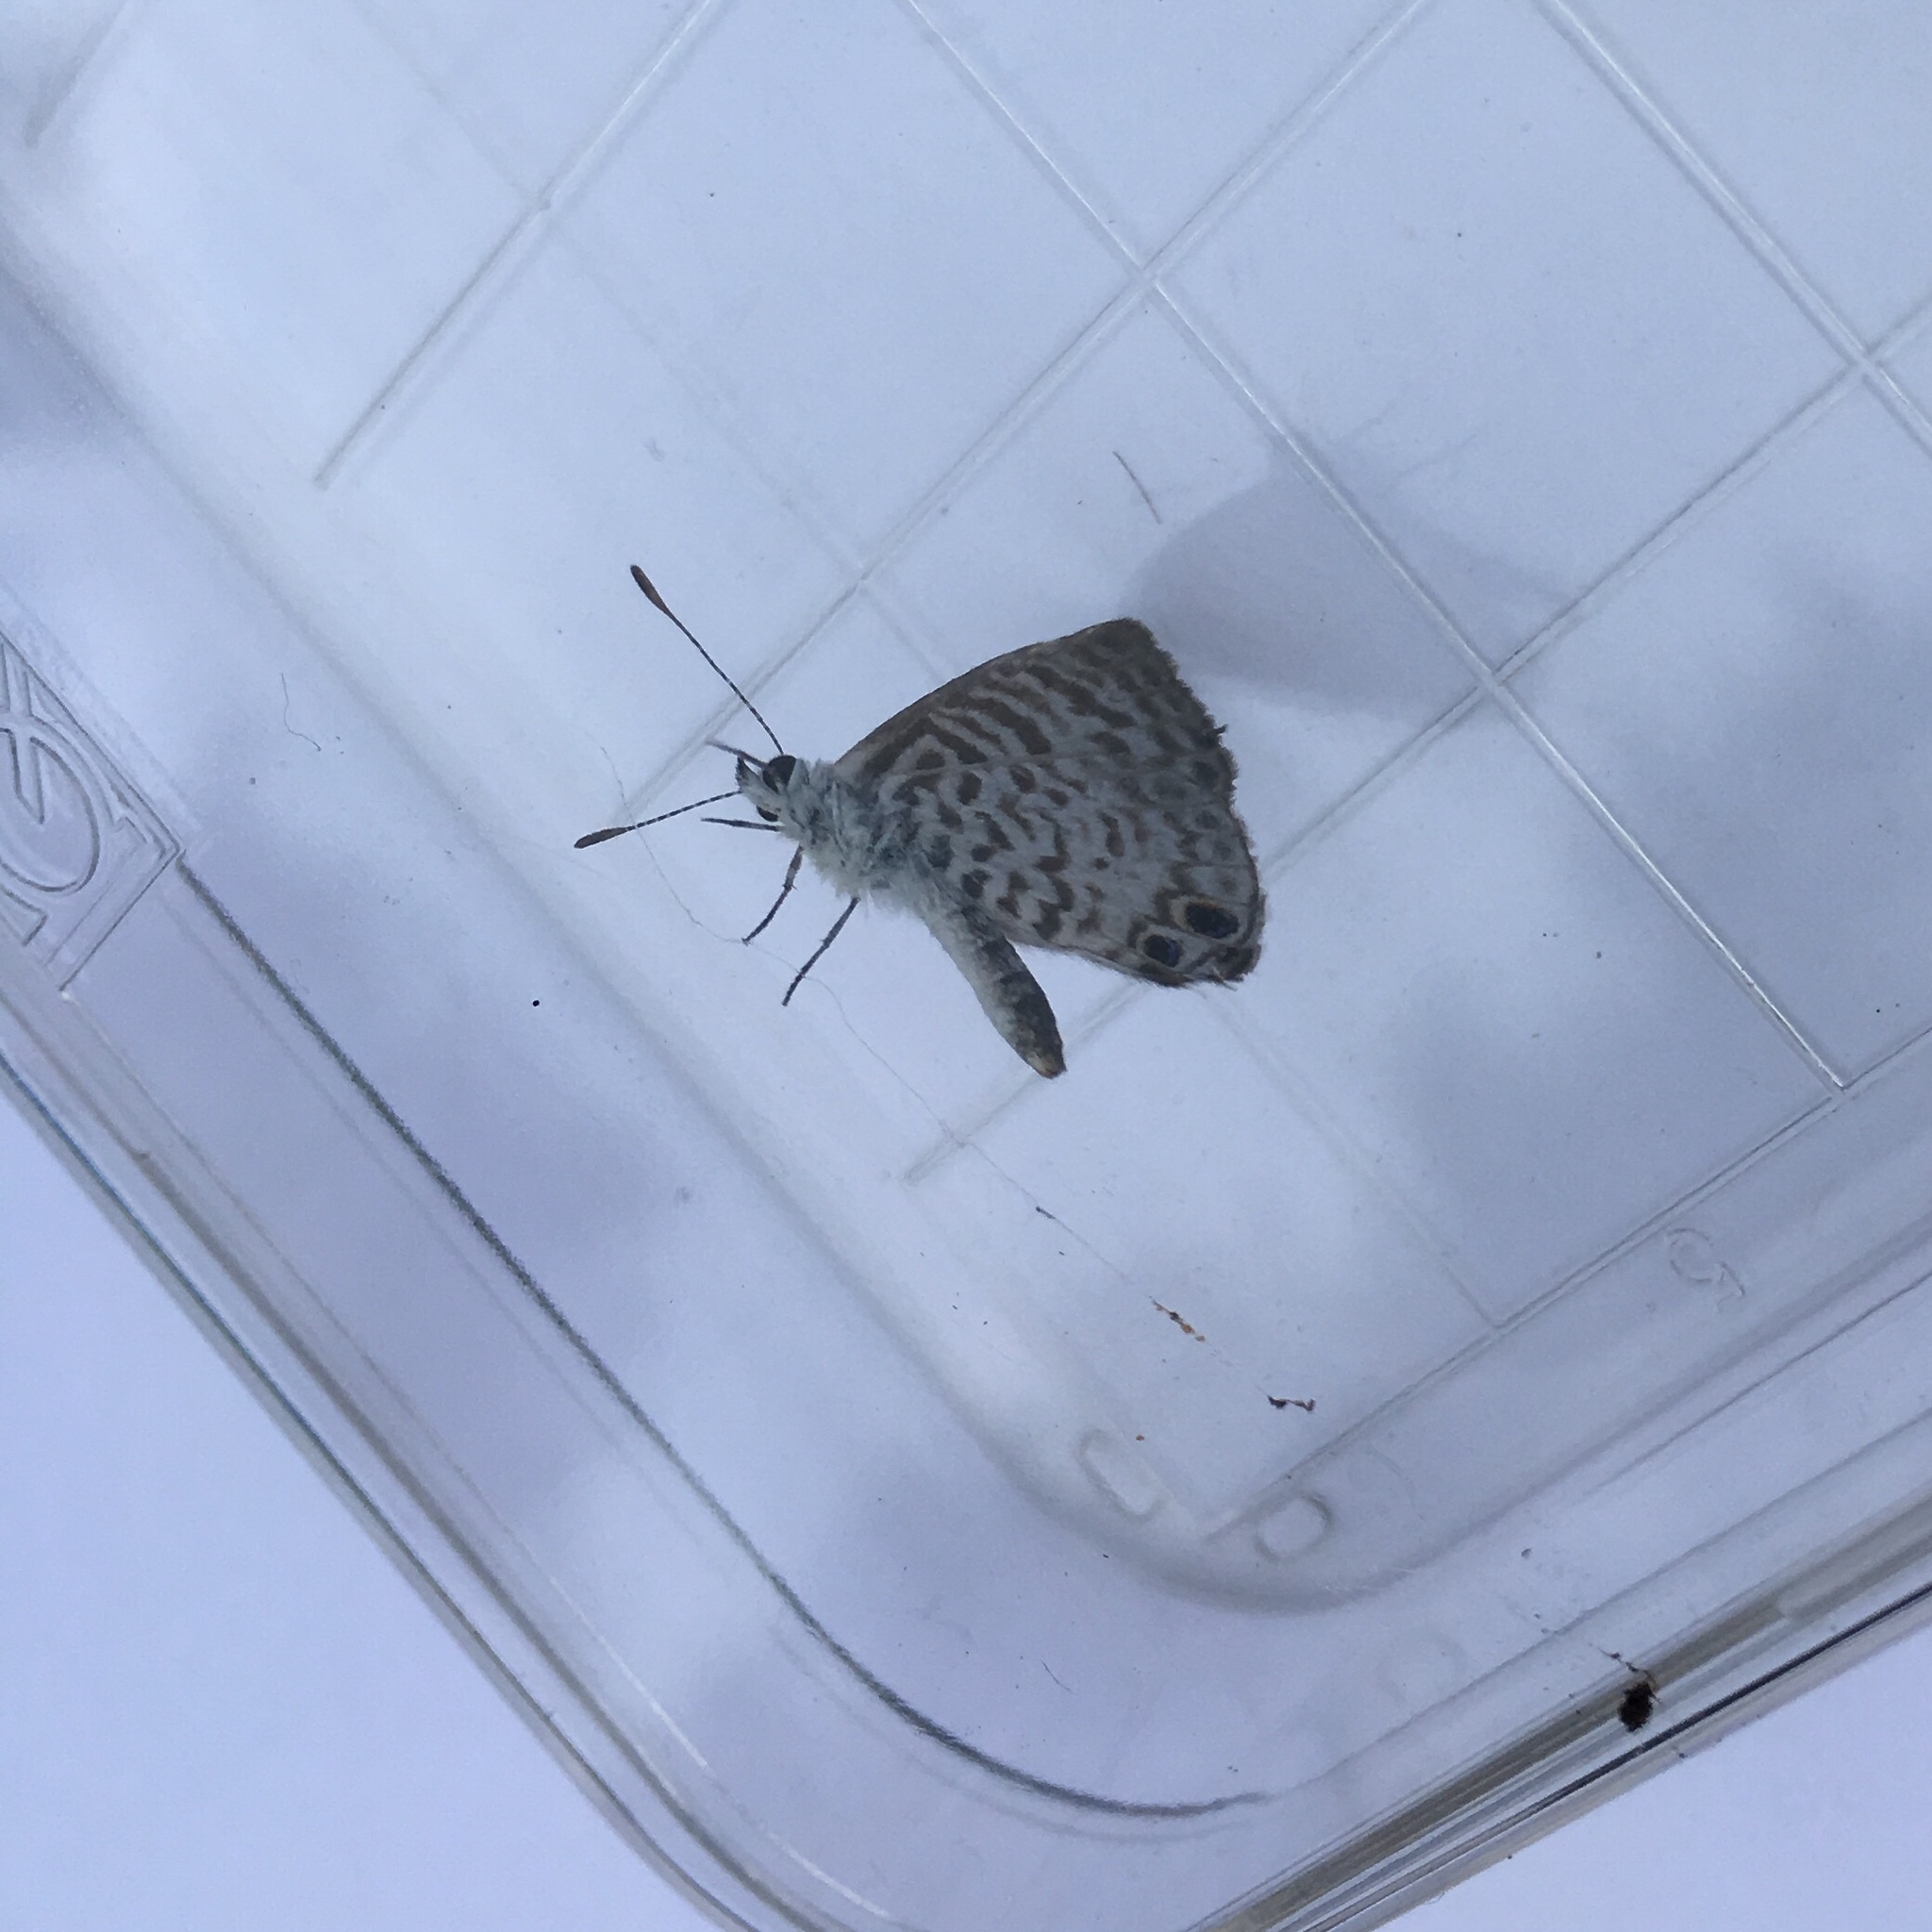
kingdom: Animalia
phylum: Arthropoda
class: Insecta
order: Lepidoptera
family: Lycaenidae
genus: Leptotes
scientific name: Leptotes cassius
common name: Cassius blue
